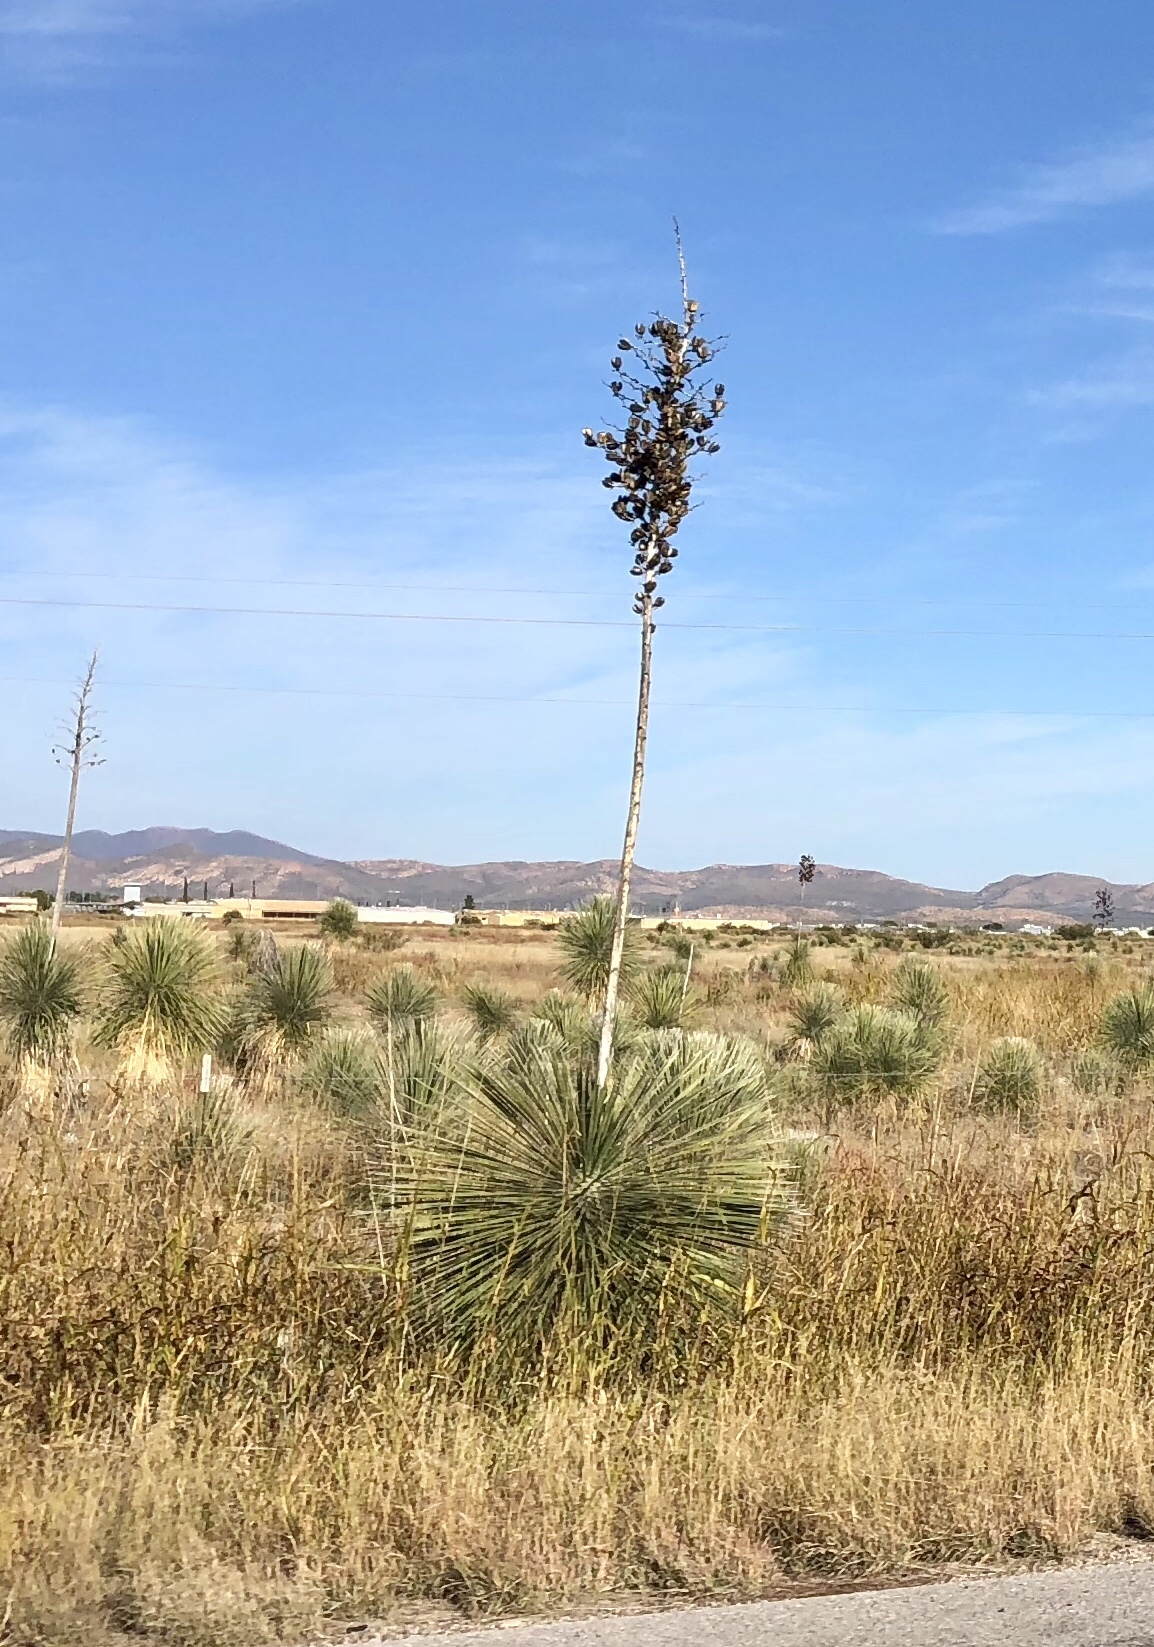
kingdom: Plantae
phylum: Tracheophyta
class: Liliopsida
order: Asparagales
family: Asparagaceae
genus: Yucca
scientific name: Yucca elata
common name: Palmella
